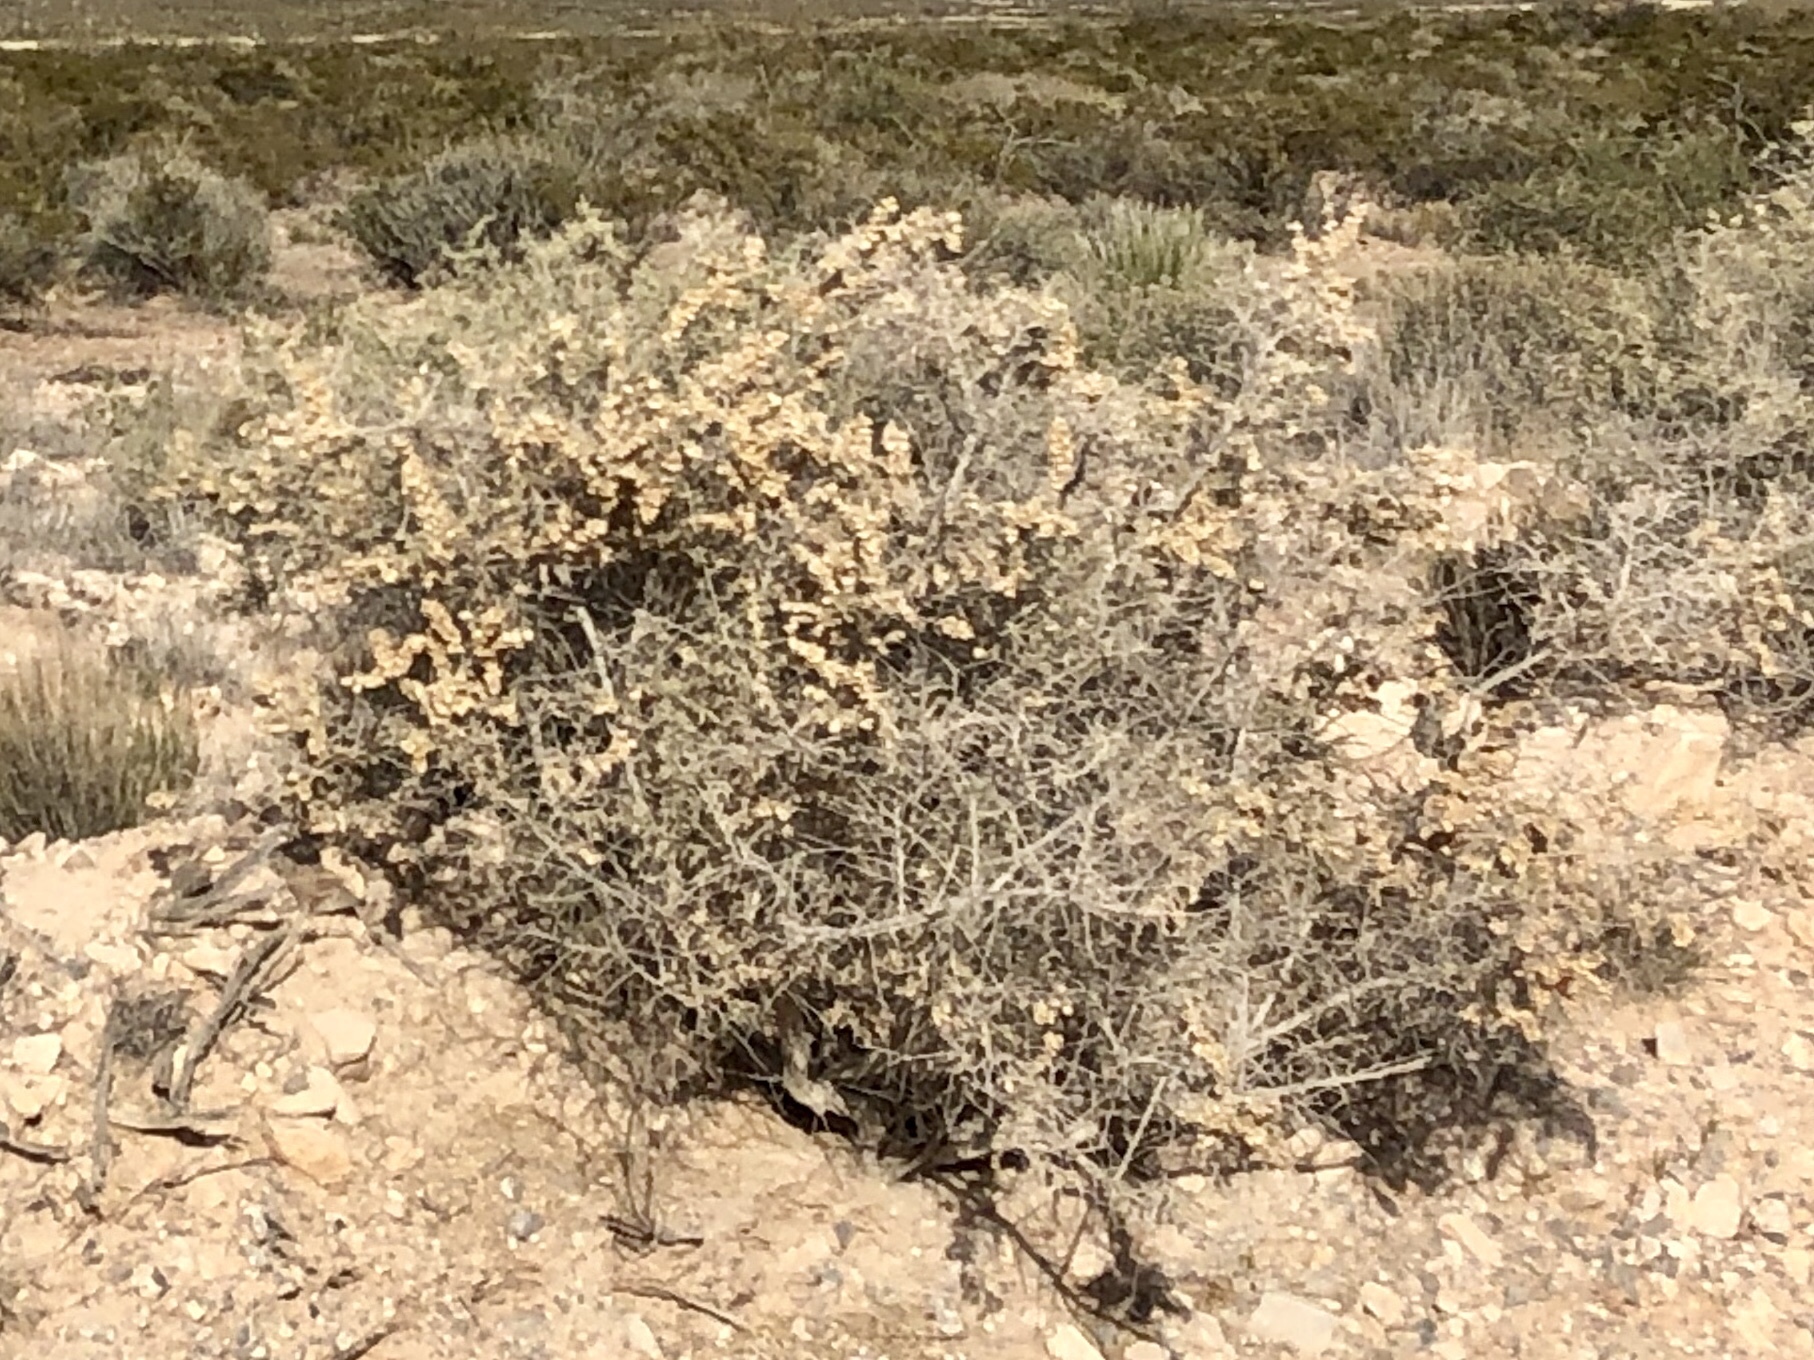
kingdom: Plantae
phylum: Tracheophyta
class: Magnoliopsida
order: Caryophyllales
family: Amaranthaceae
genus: Atriplex
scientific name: Atriplex canescens
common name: Four-wing saltbush
